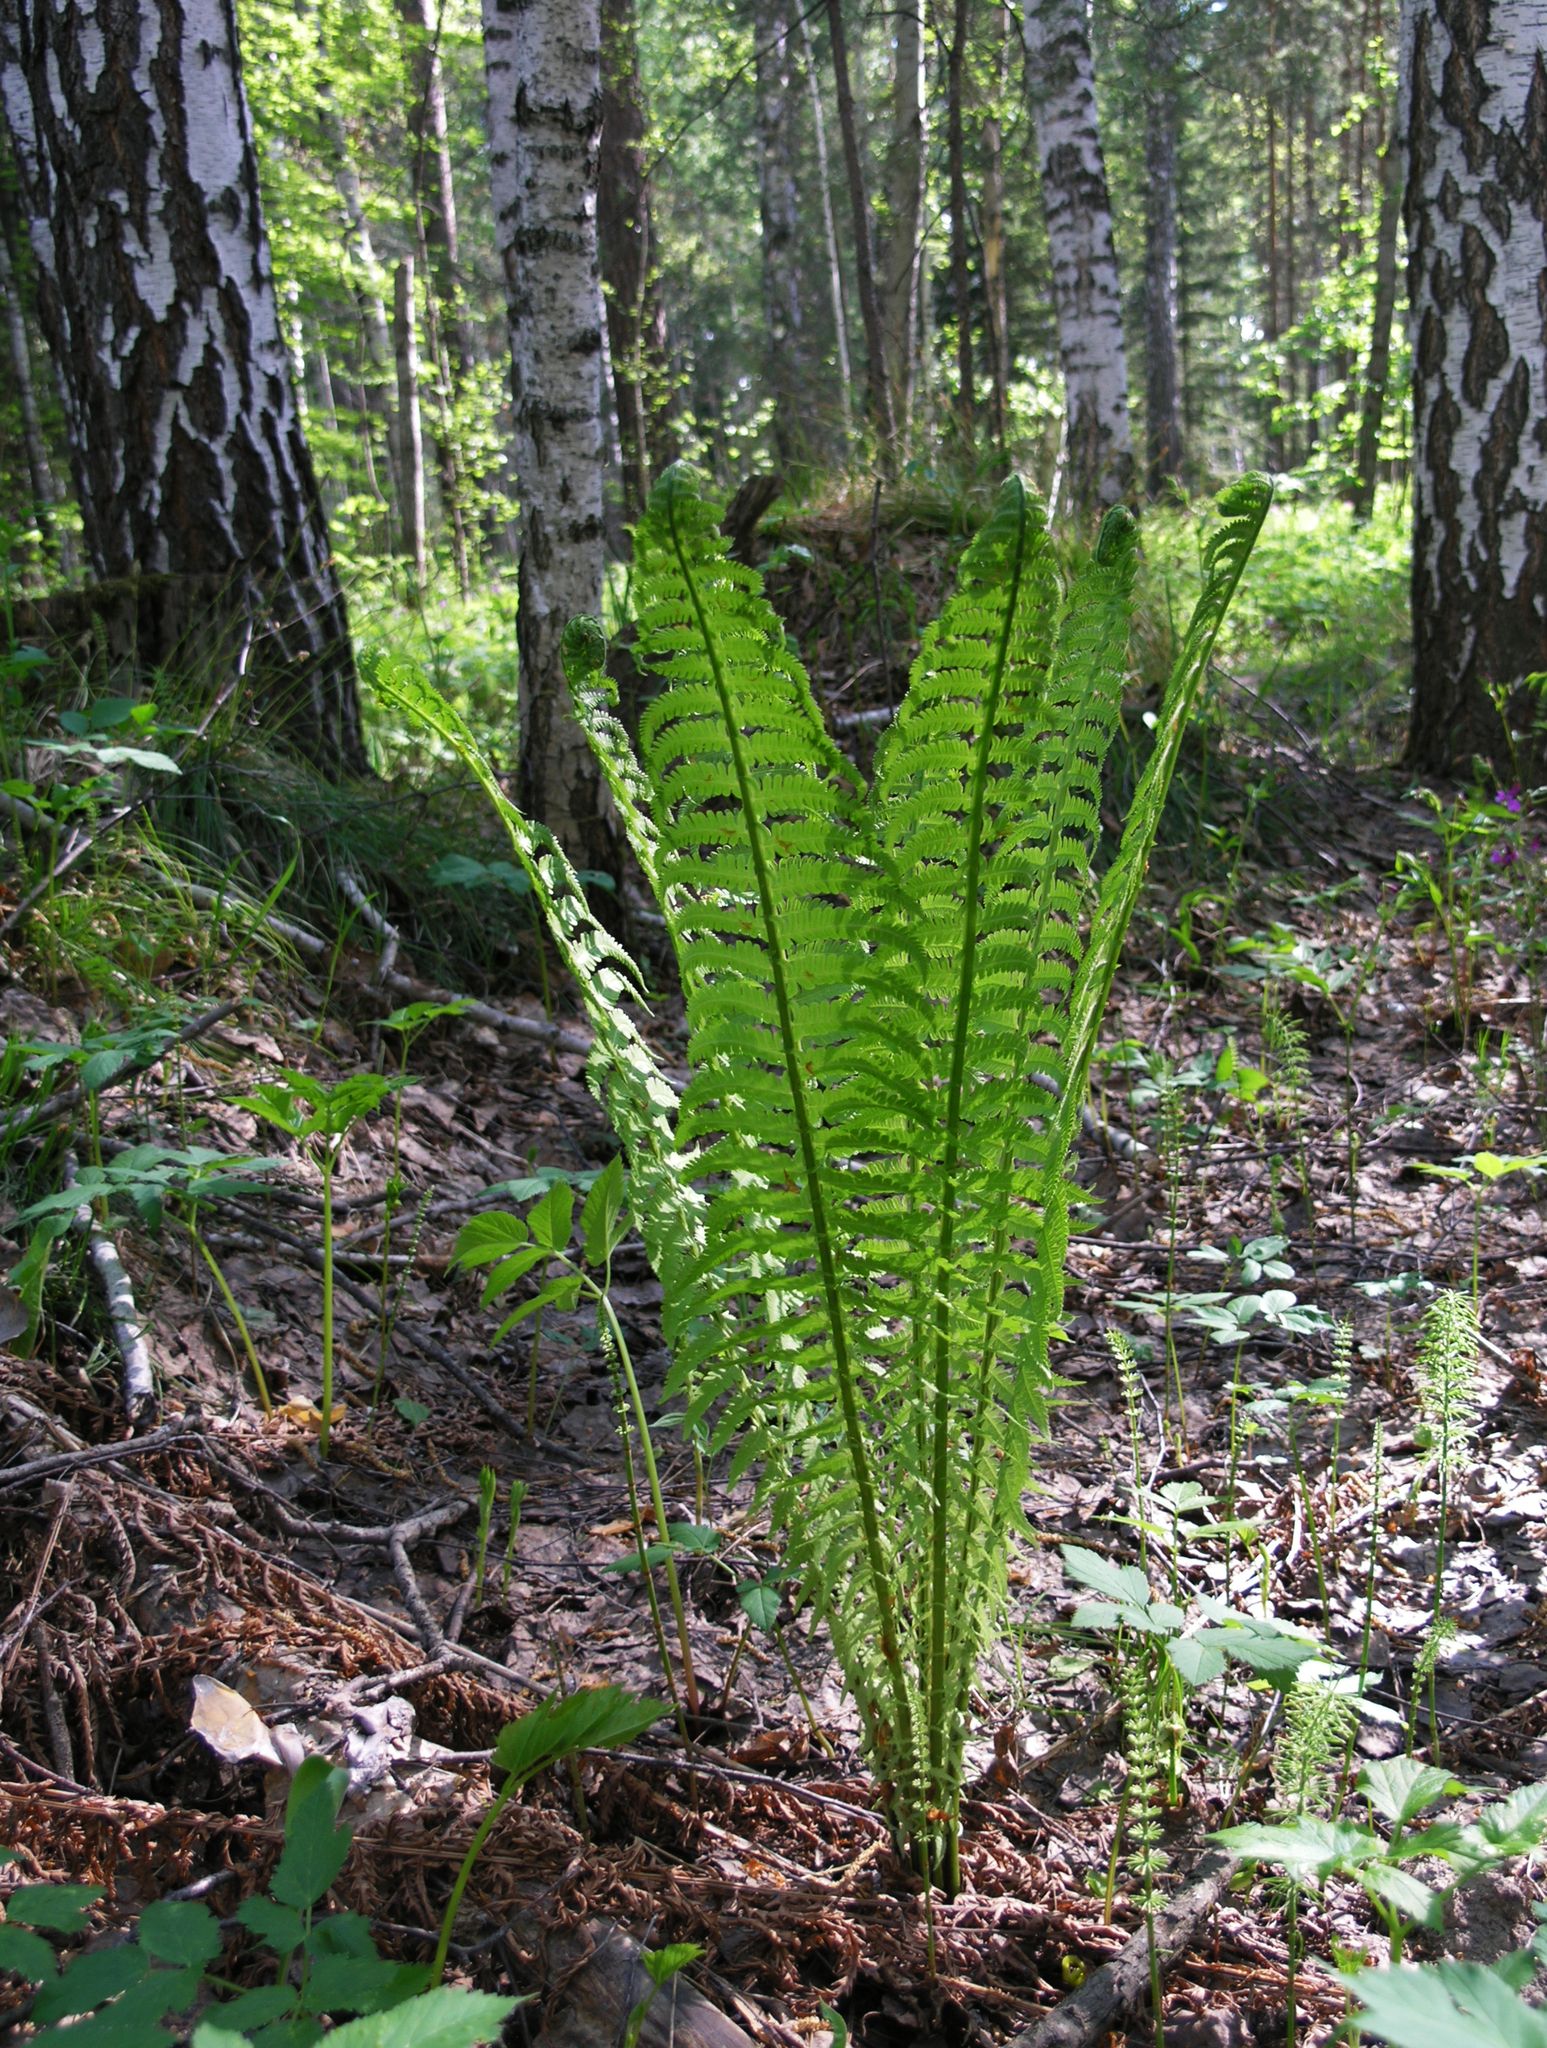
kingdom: Plantae
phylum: Tracheophyta
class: Polypodiopsida
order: Polypodiales
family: Onocleaceae
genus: Matteuccia
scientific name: Matteuccia struthiopteris
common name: Ostrich fern
